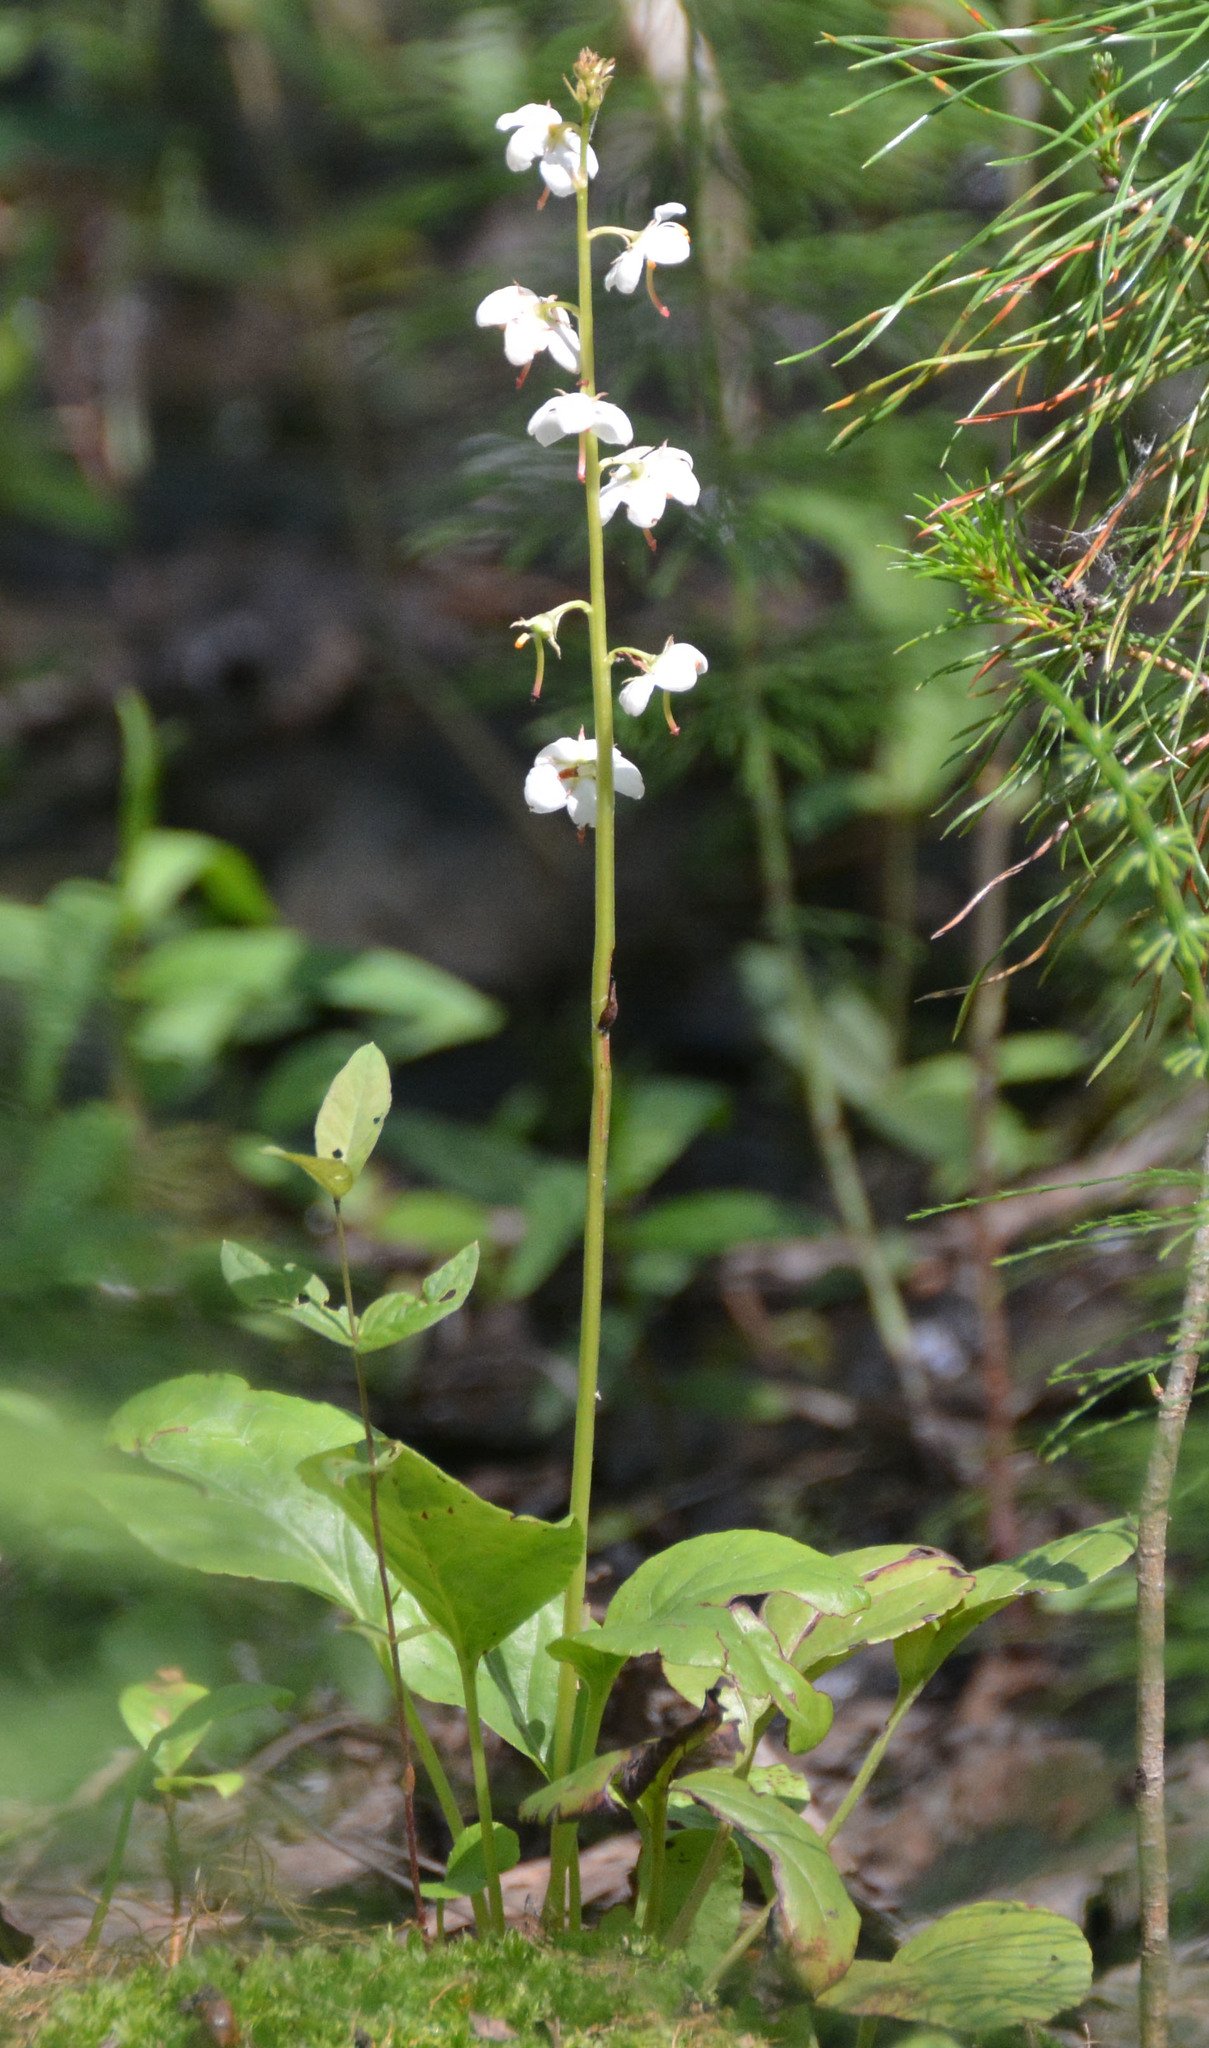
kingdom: Plantae
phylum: Tracheophyta
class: Magnoliopsida
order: Ericales
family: Ericaceae
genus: Pyrola
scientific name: Pyrola rotundifolia
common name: Round-leaved wintergreen
